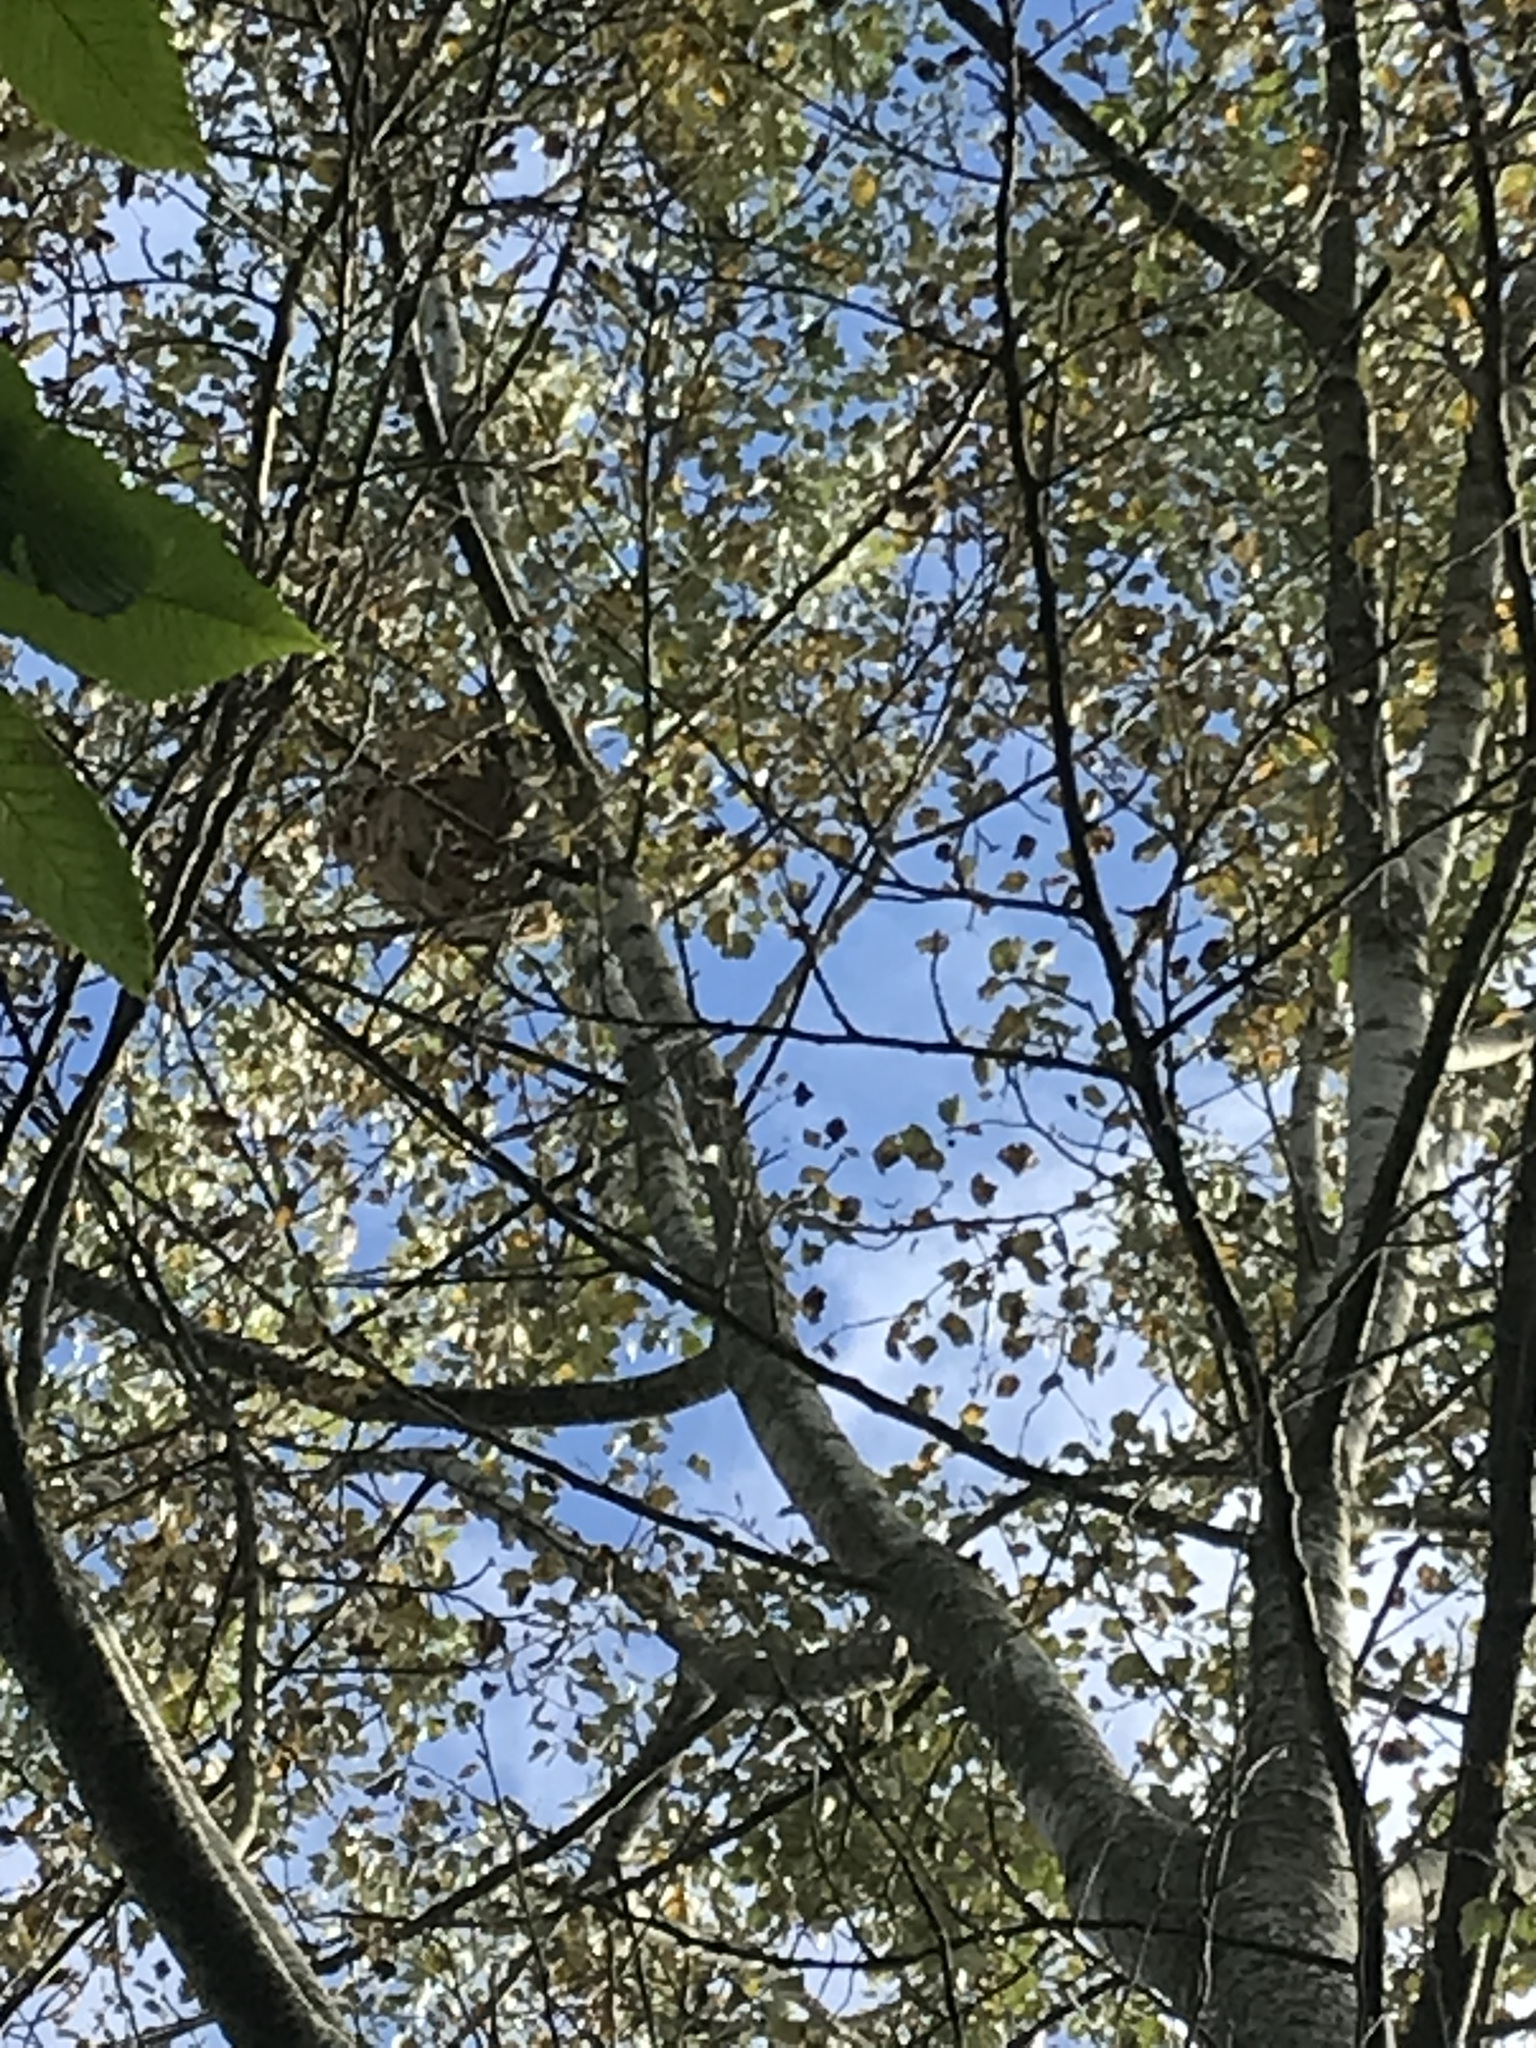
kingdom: Animalia
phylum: Arthropoda
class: Insecta
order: Hymenoptera
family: Vespidae
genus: Vespa
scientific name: Vespa velutina
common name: Asian hornet
